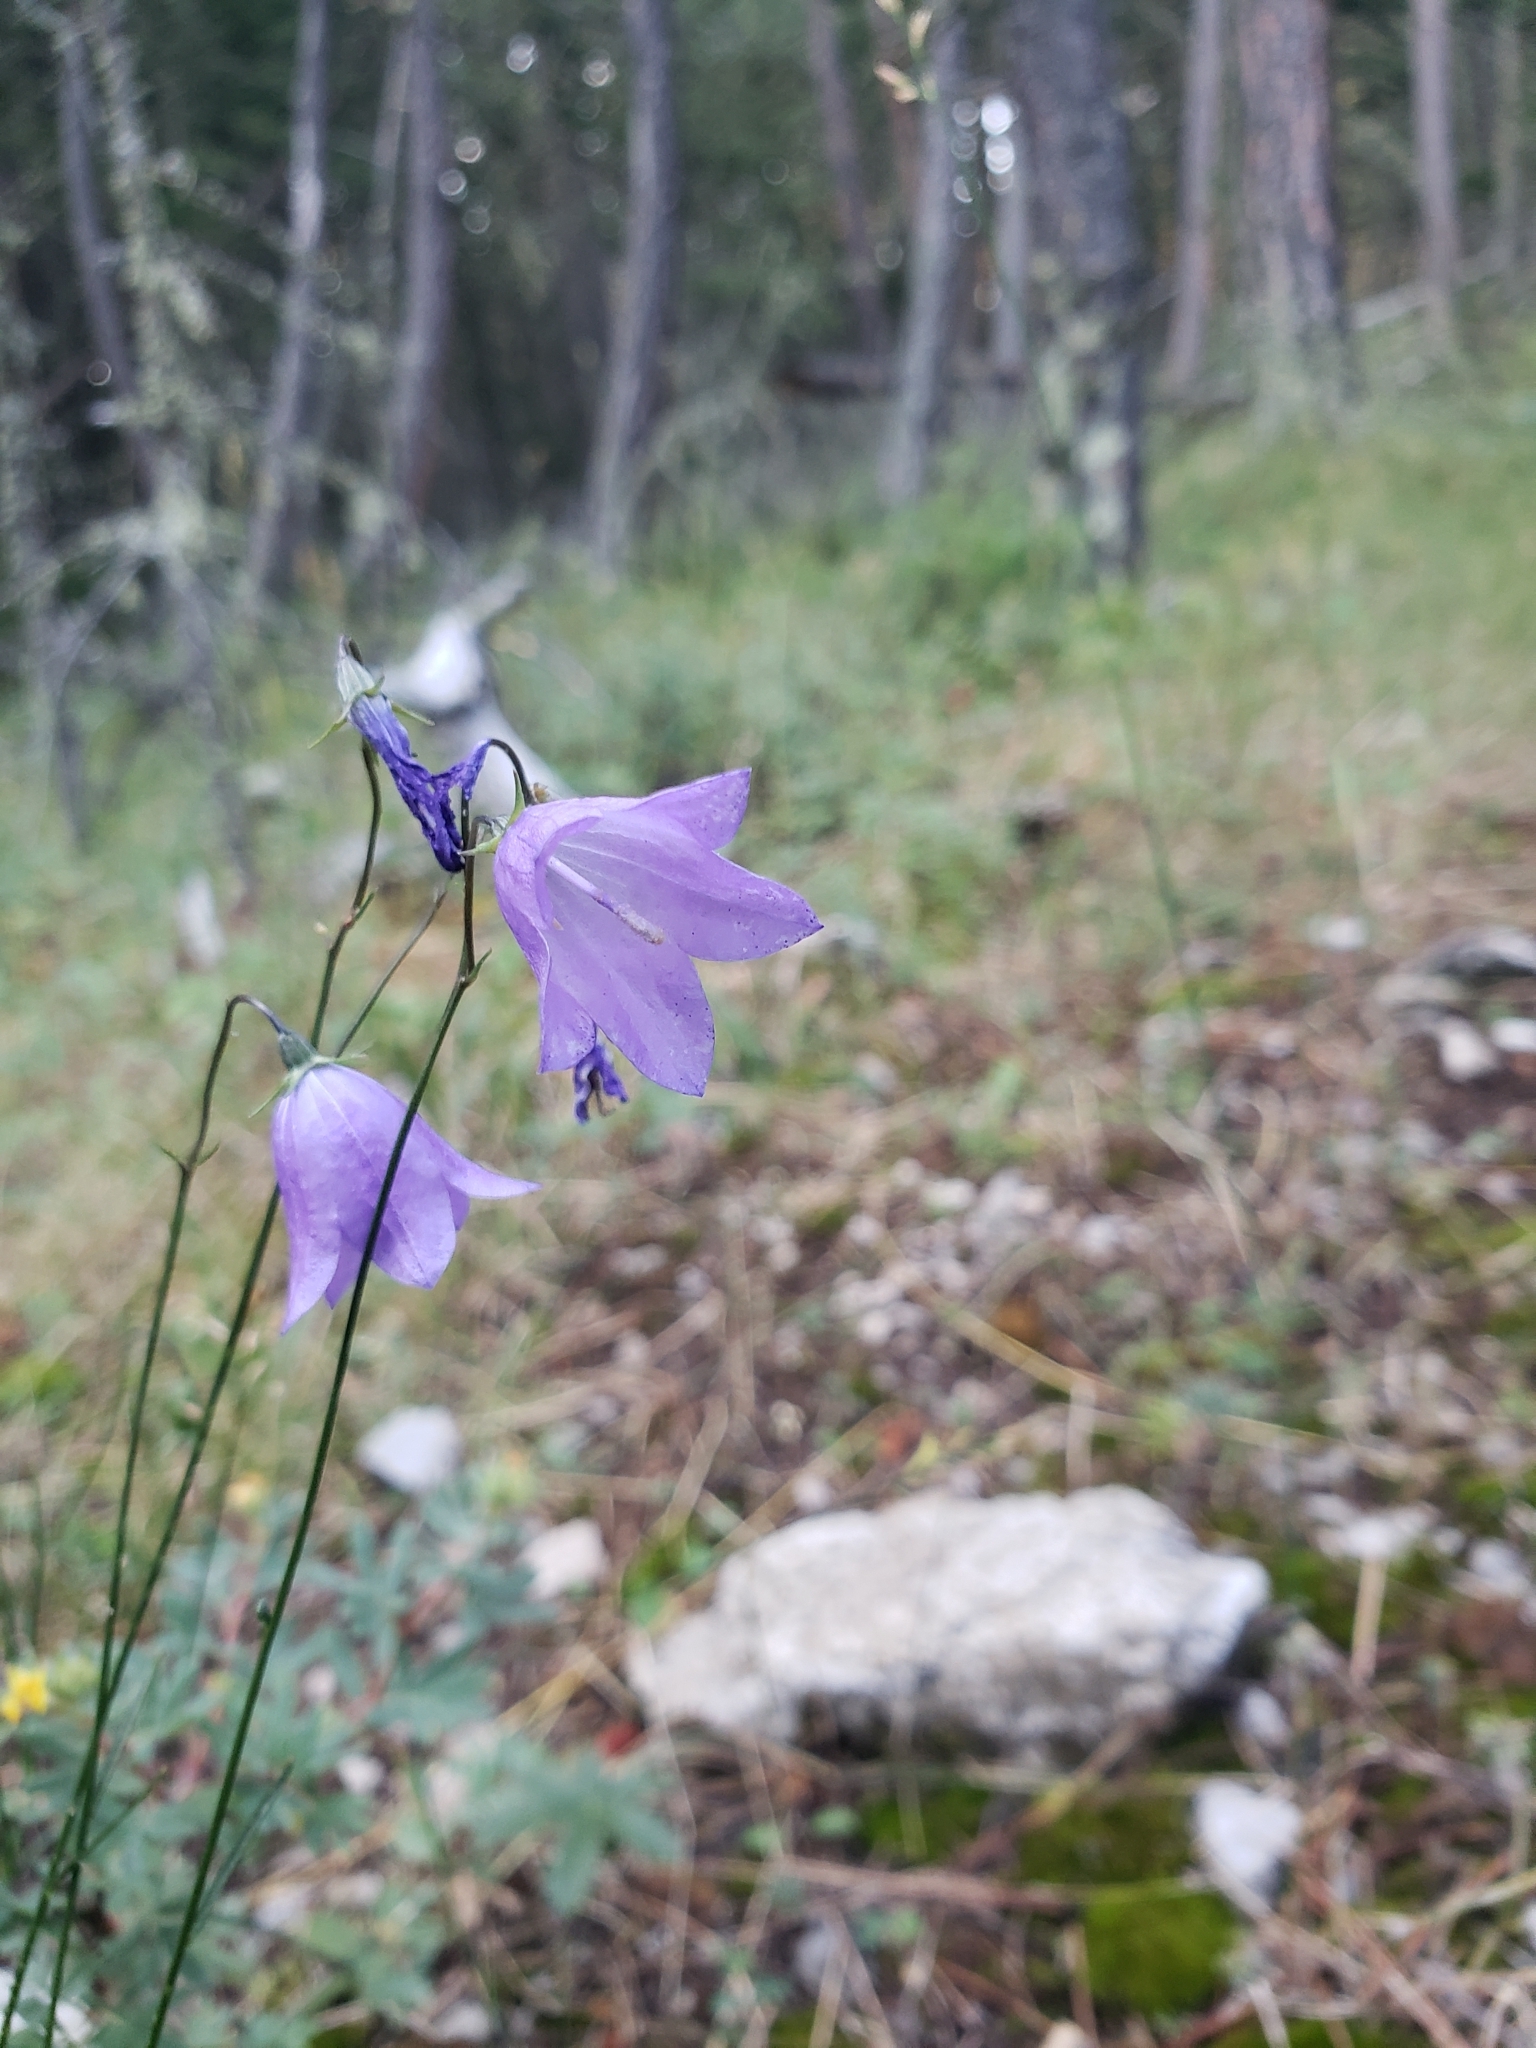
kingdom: Plantae
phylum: Tracheophyta
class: Magnoliopsida
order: Asterales
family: Campanulaceae
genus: Campanula
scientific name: Campanula petiolata
